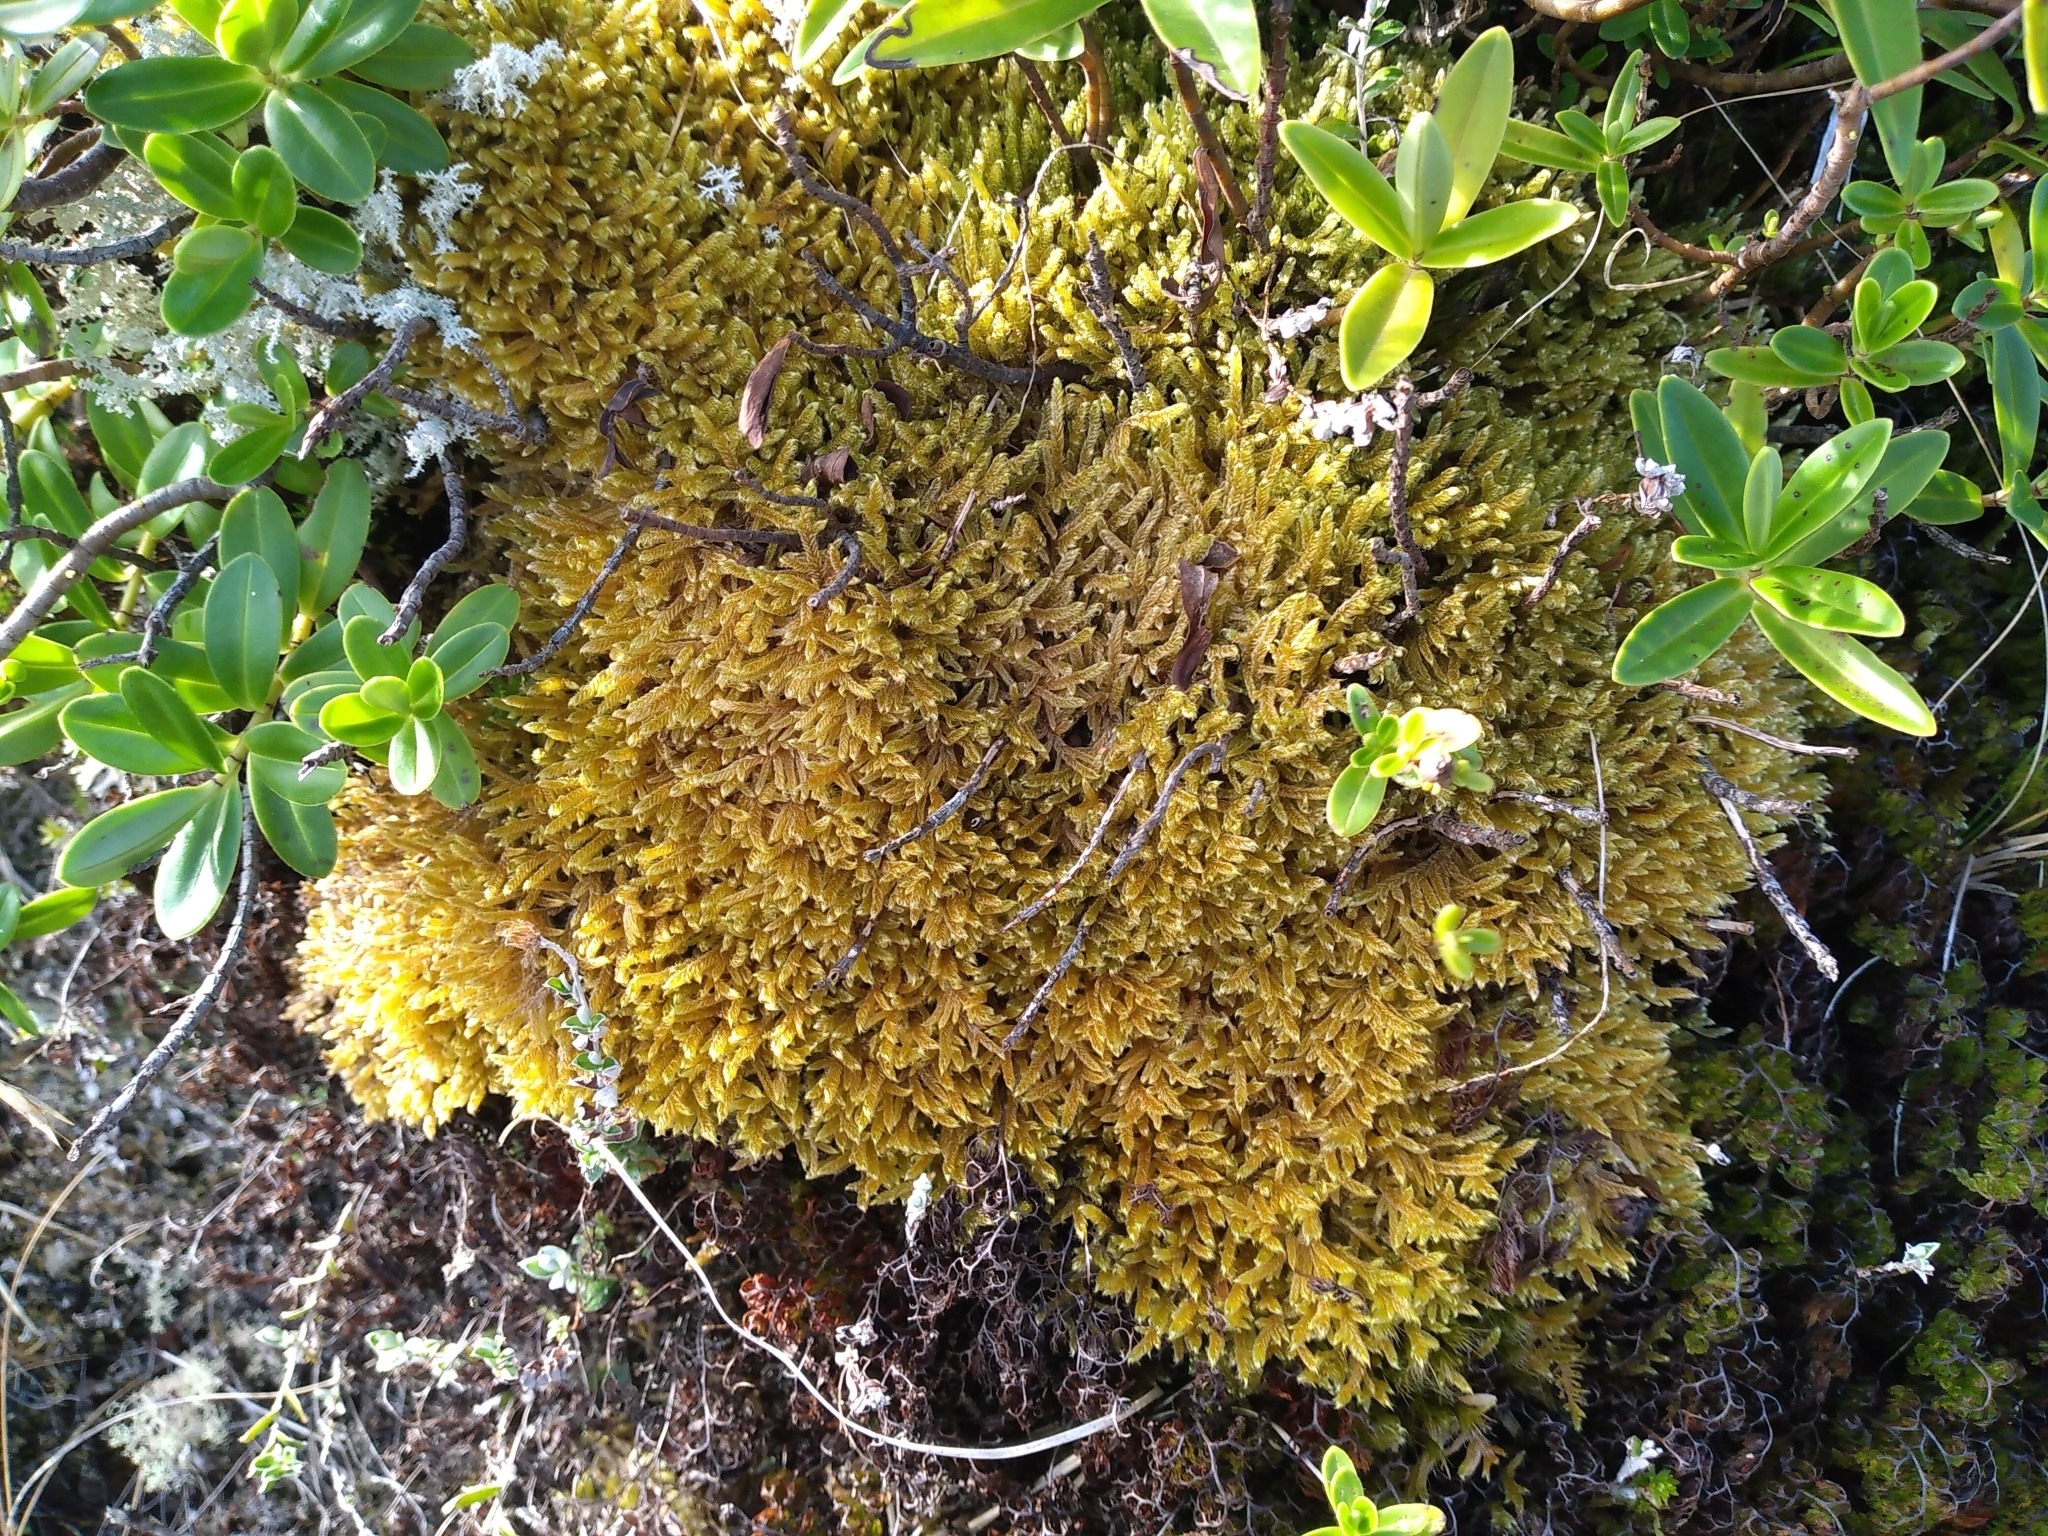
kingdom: Plantae
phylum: Bryophyta
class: Bryopsida
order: Hypnales
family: Hypnaceae
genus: Hypnum
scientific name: Hypnum cupressiforme
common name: Cypress-leaved plait-moss
